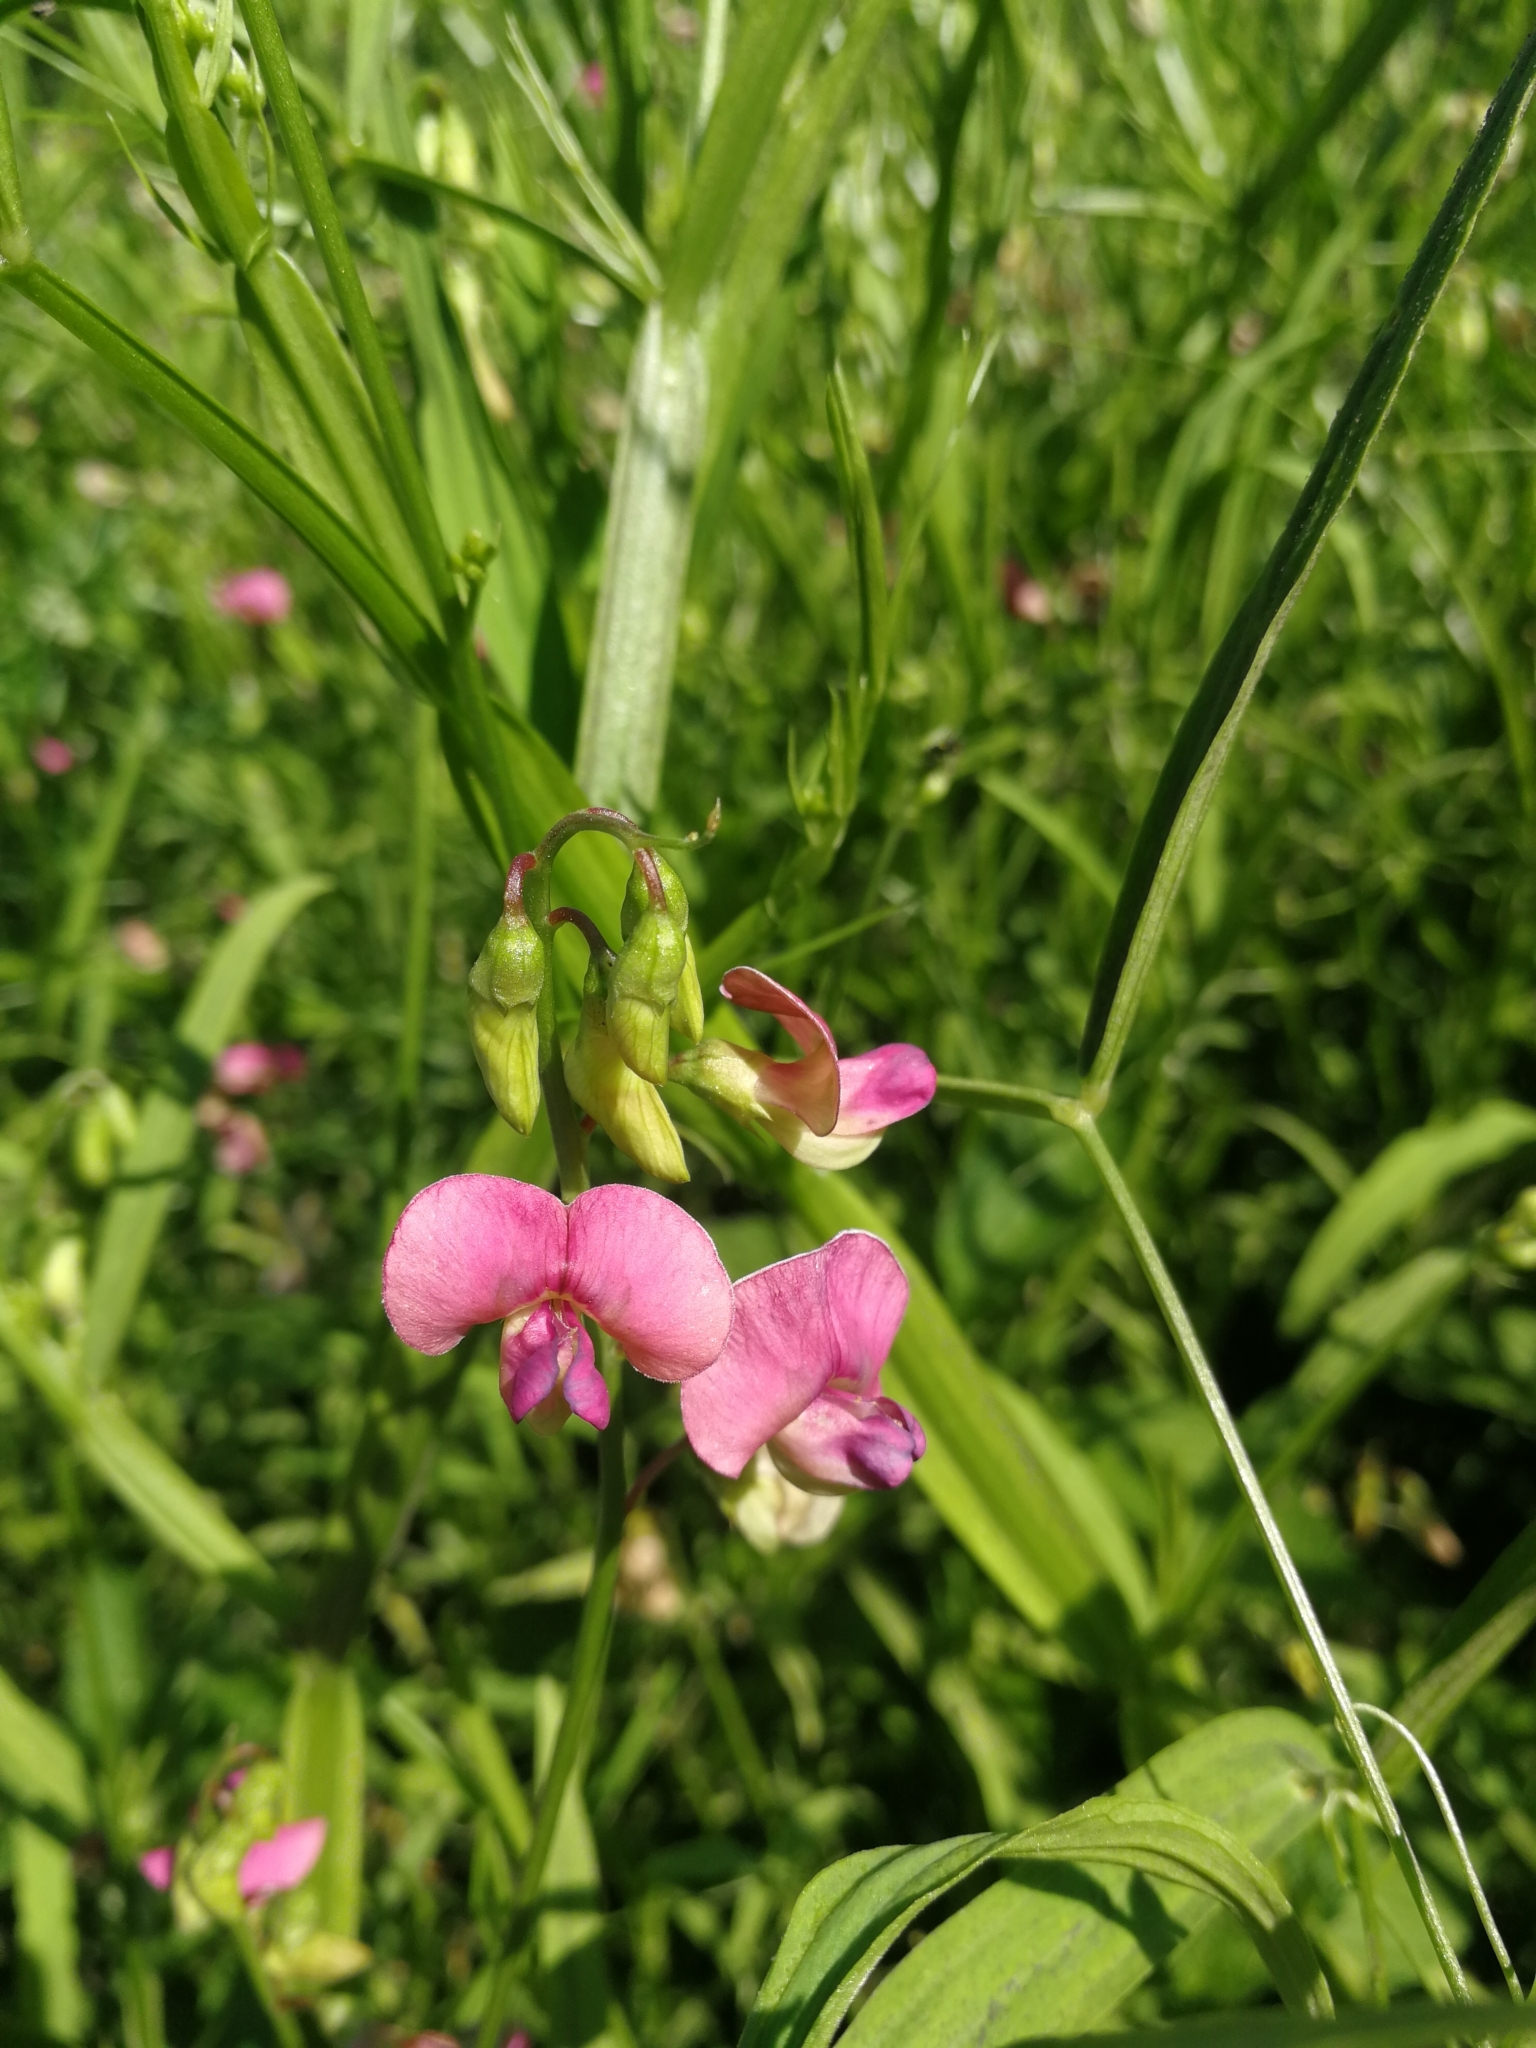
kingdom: Plantae
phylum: Tracheophyta
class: Magnoliopsida
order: Fabales
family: Fabaceae
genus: Lathyrus
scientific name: Lathyrus sylvestris
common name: Flat pea
